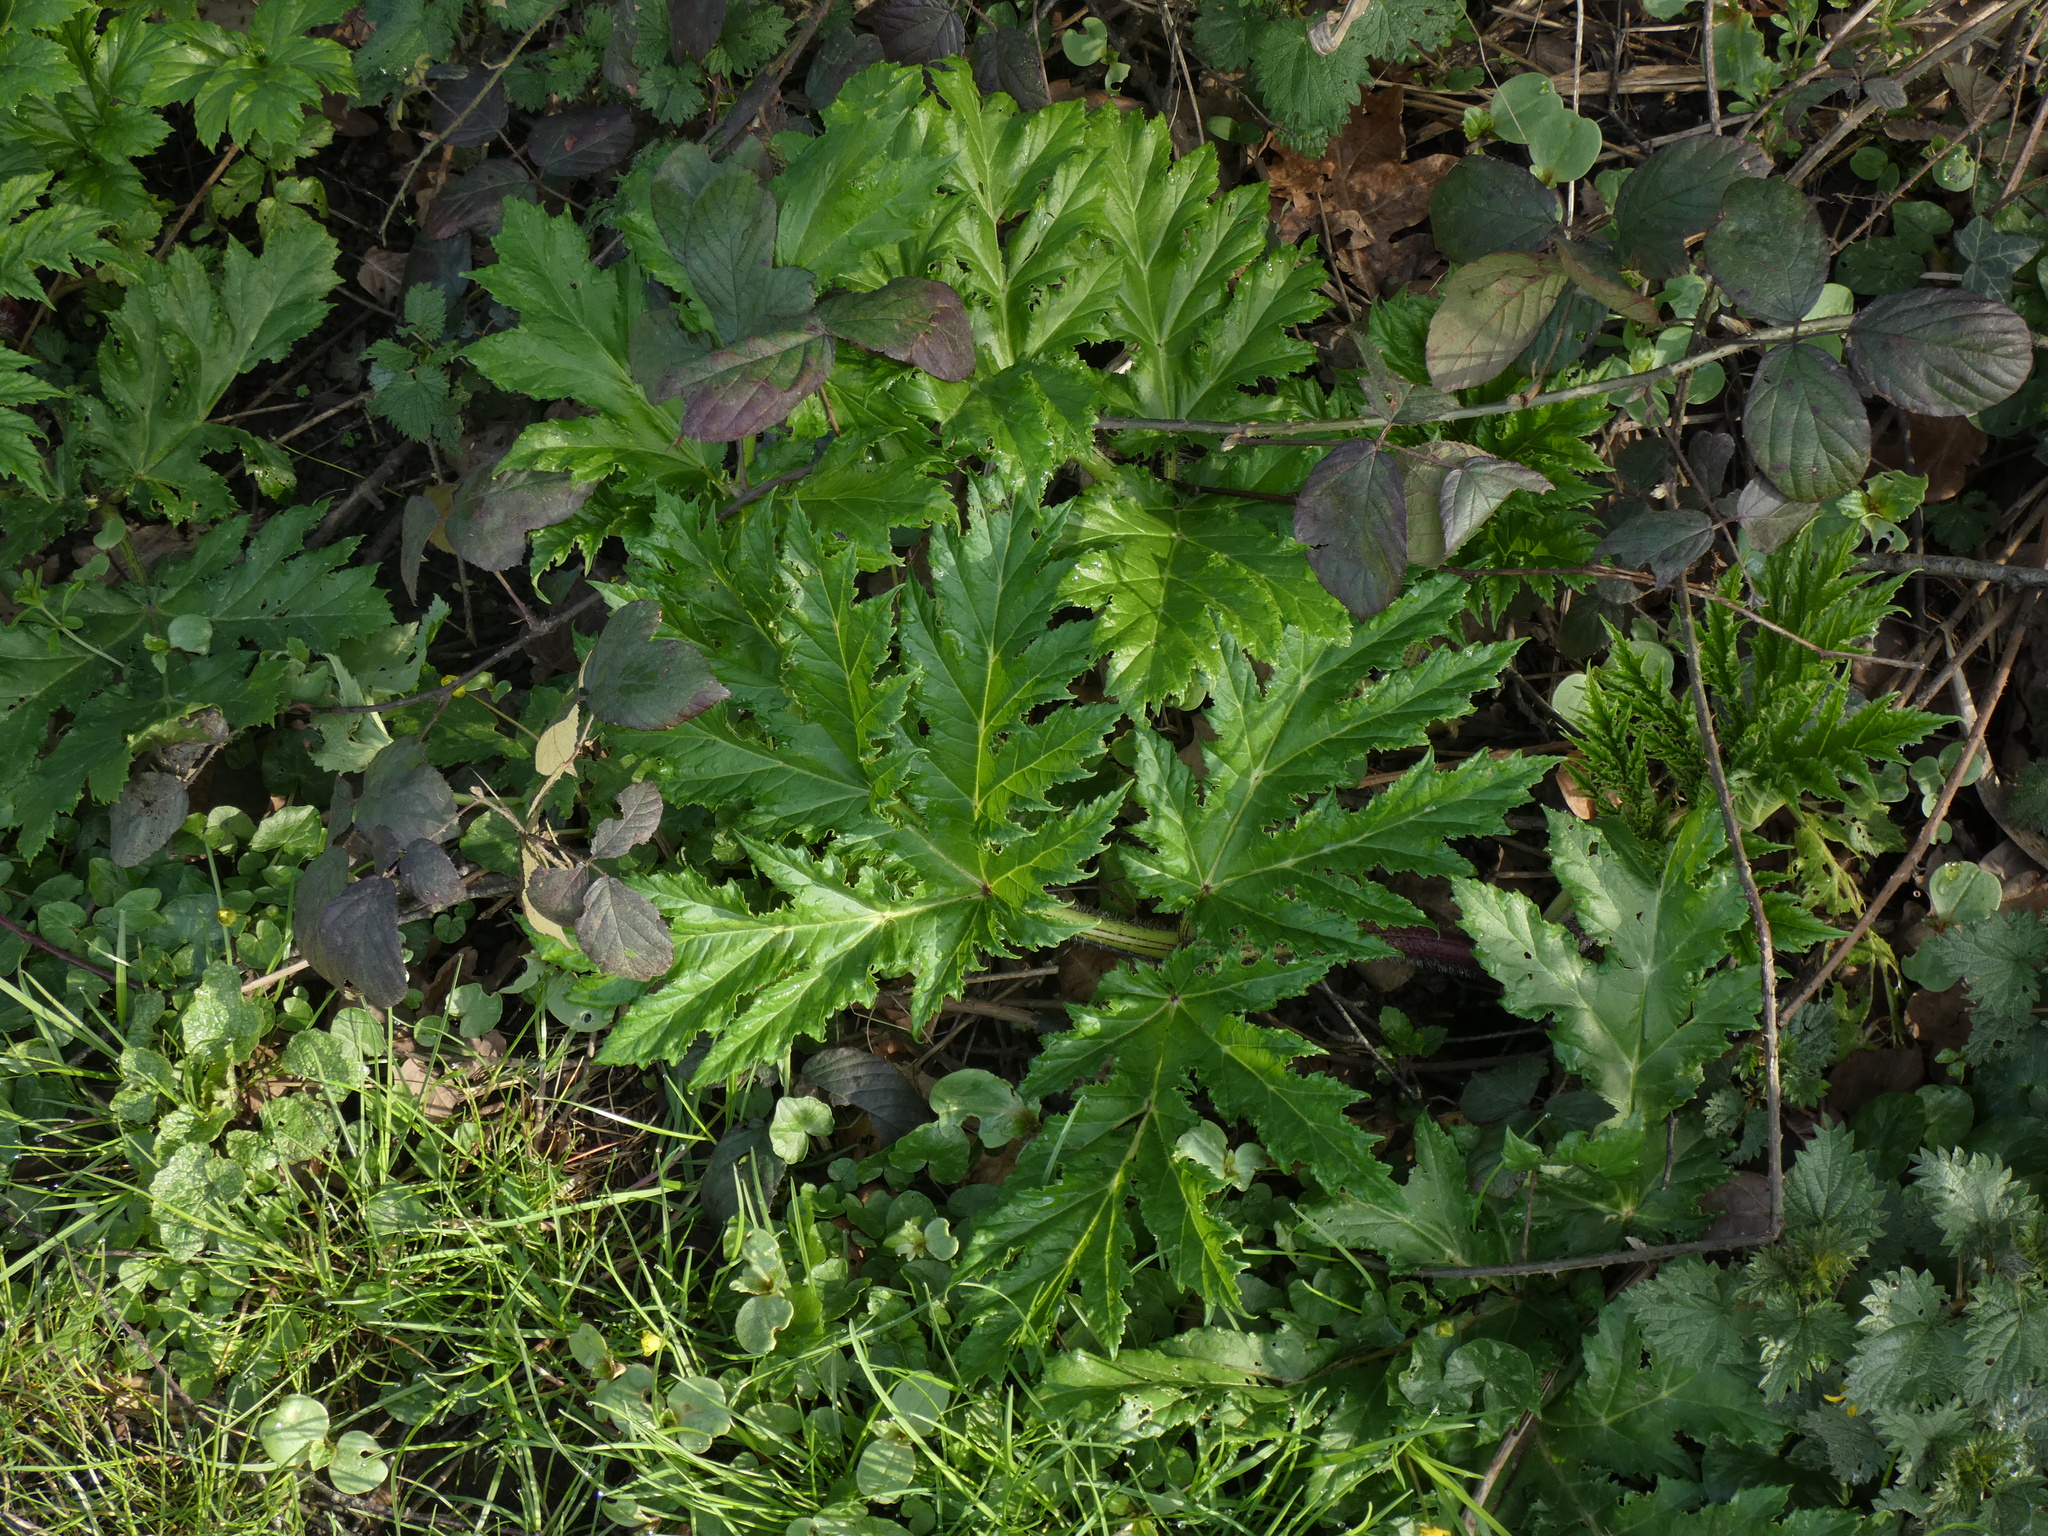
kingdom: Plantae
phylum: Tracheophyta
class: Magnoliopsida
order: Apiales
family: Apiaceae
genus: Heracleum
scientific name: Heracleum mantegazzianum
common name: Giant hogweed
